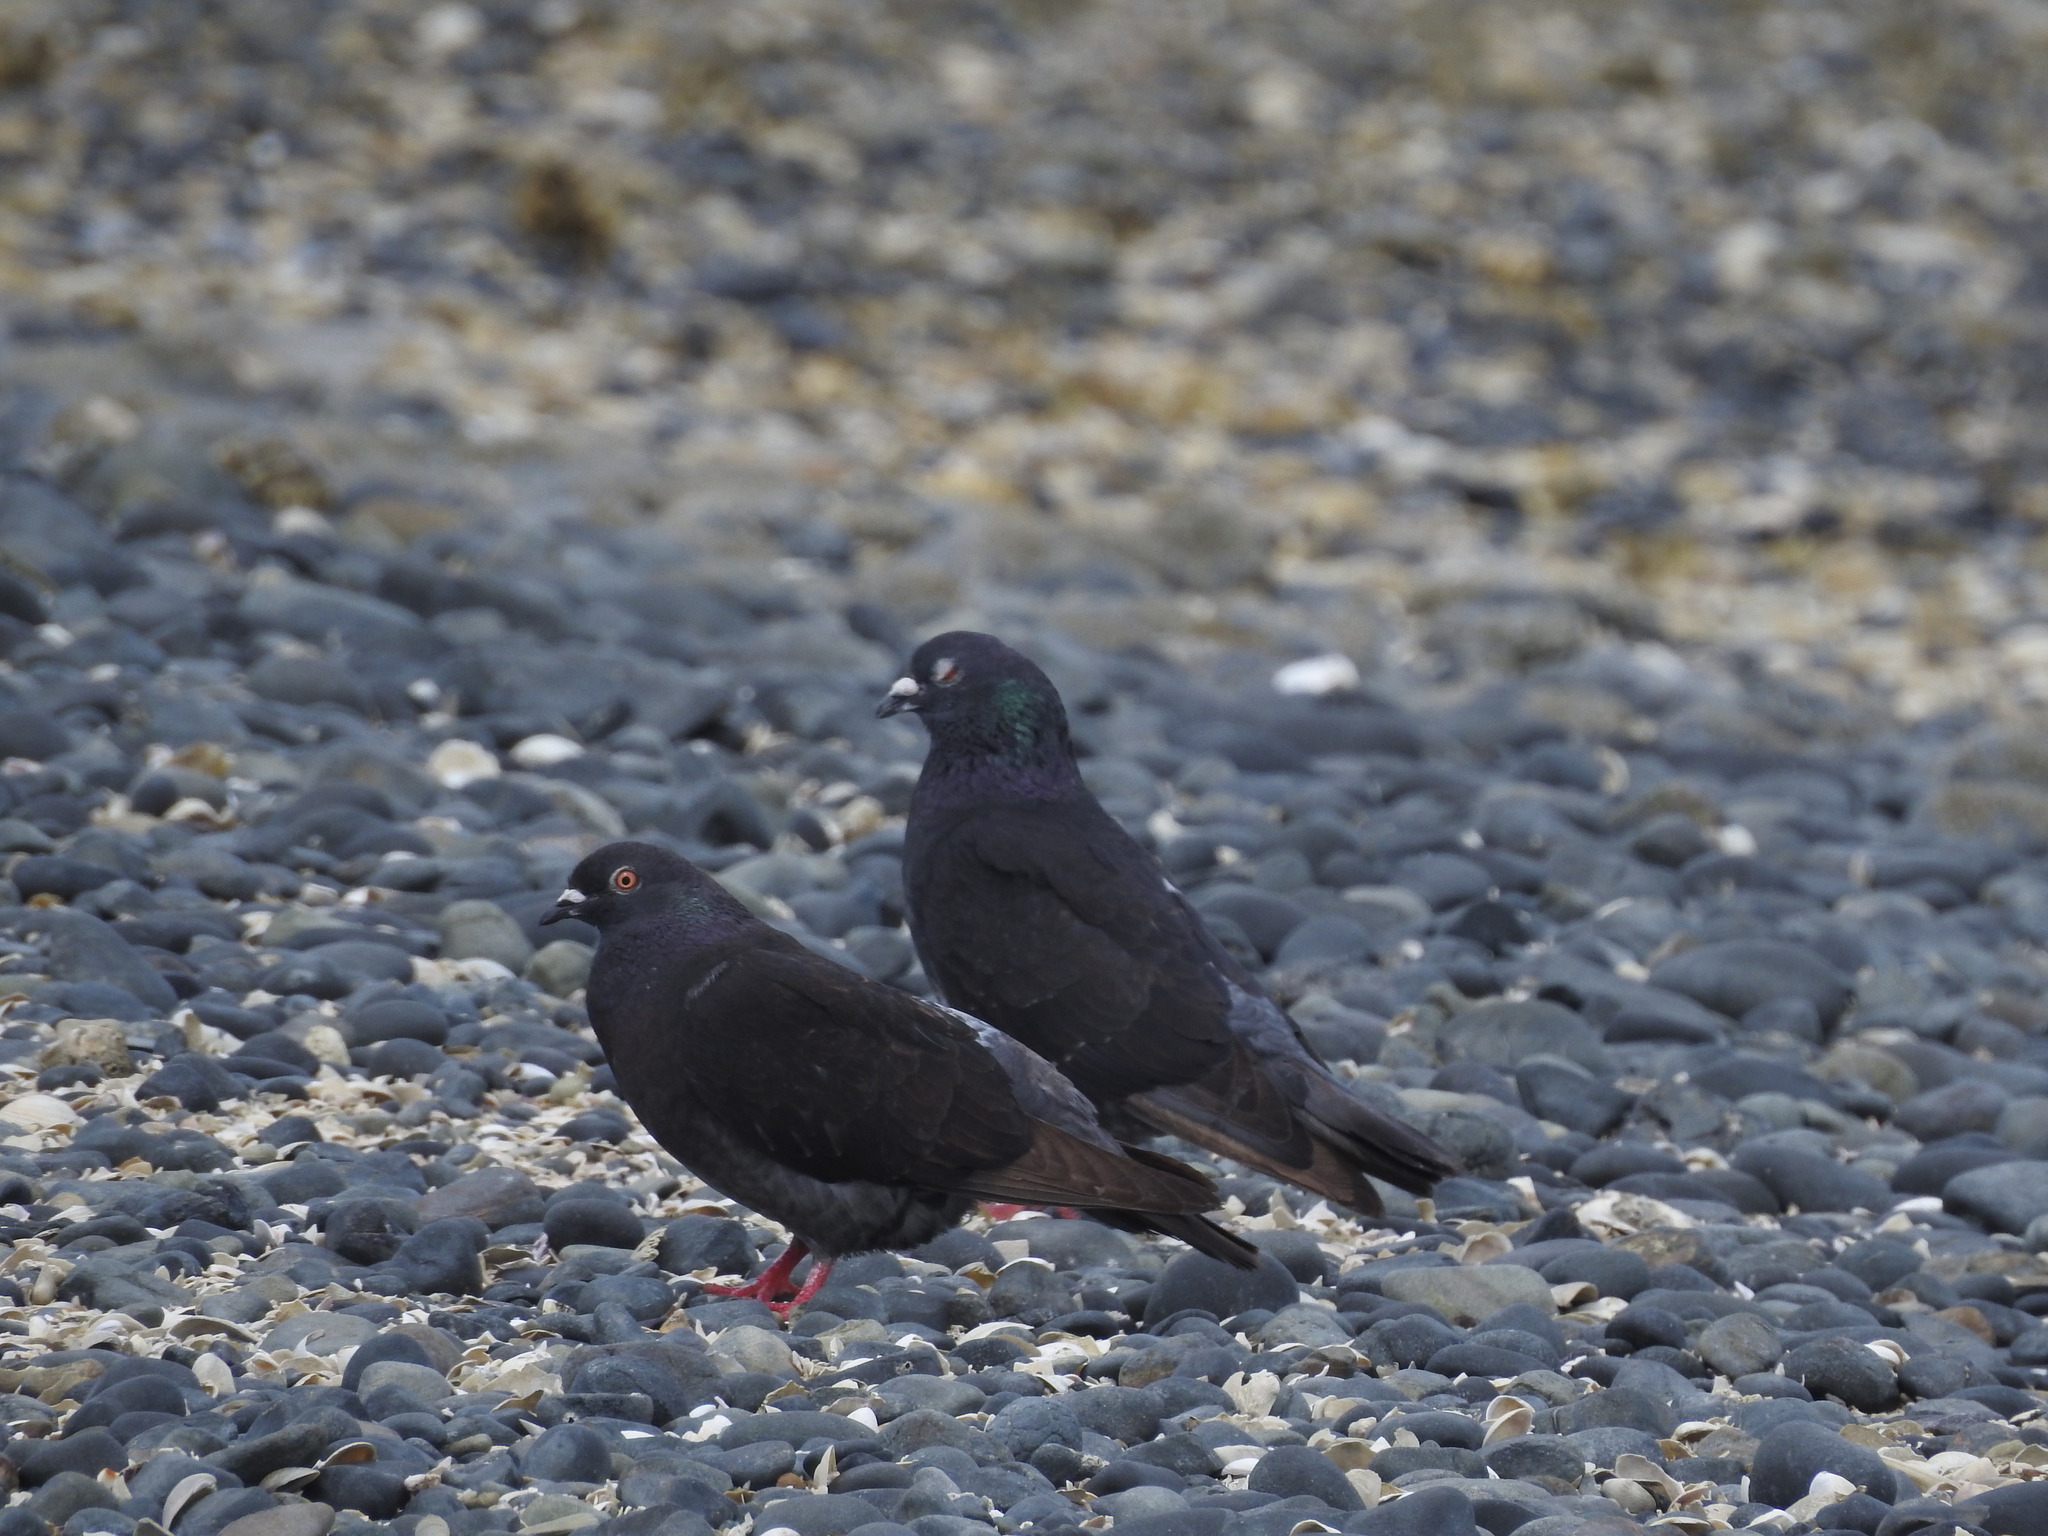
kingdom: Animalia
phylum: Chordata
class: Aves
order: Columbiformes
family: Columbidae
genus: Columba
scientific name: Columba livia
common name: Rock pigeon
